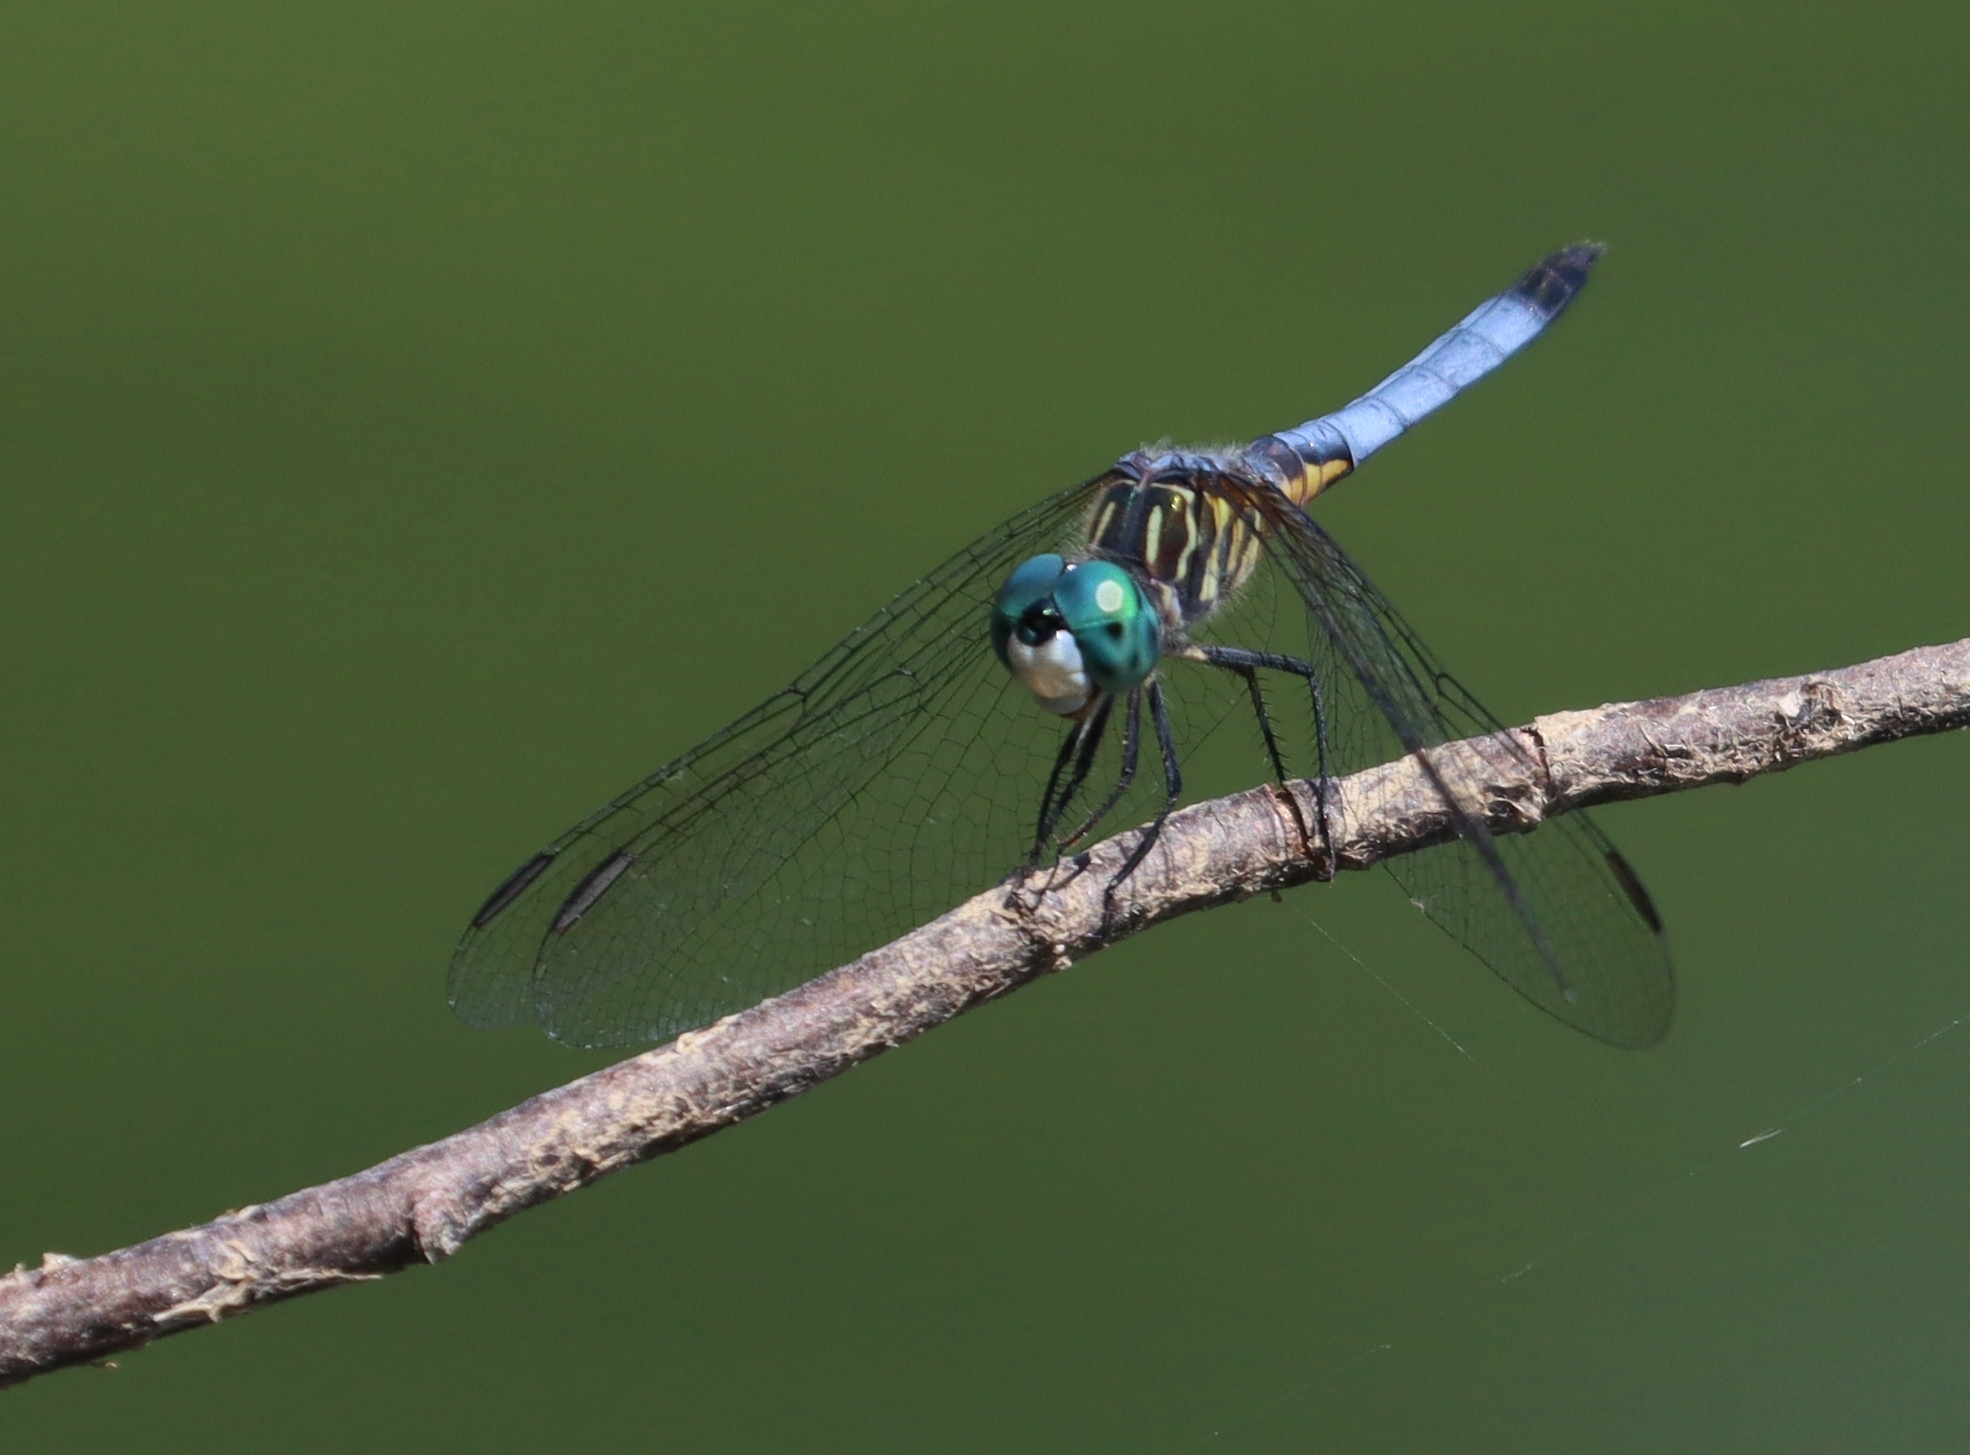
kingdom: Animalia
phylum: Arthropoda
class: Insecta
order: Odonata
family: Libellulidae
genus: Pachydiplax
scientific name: Pachydiplax longipennis
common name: Blue dasher
